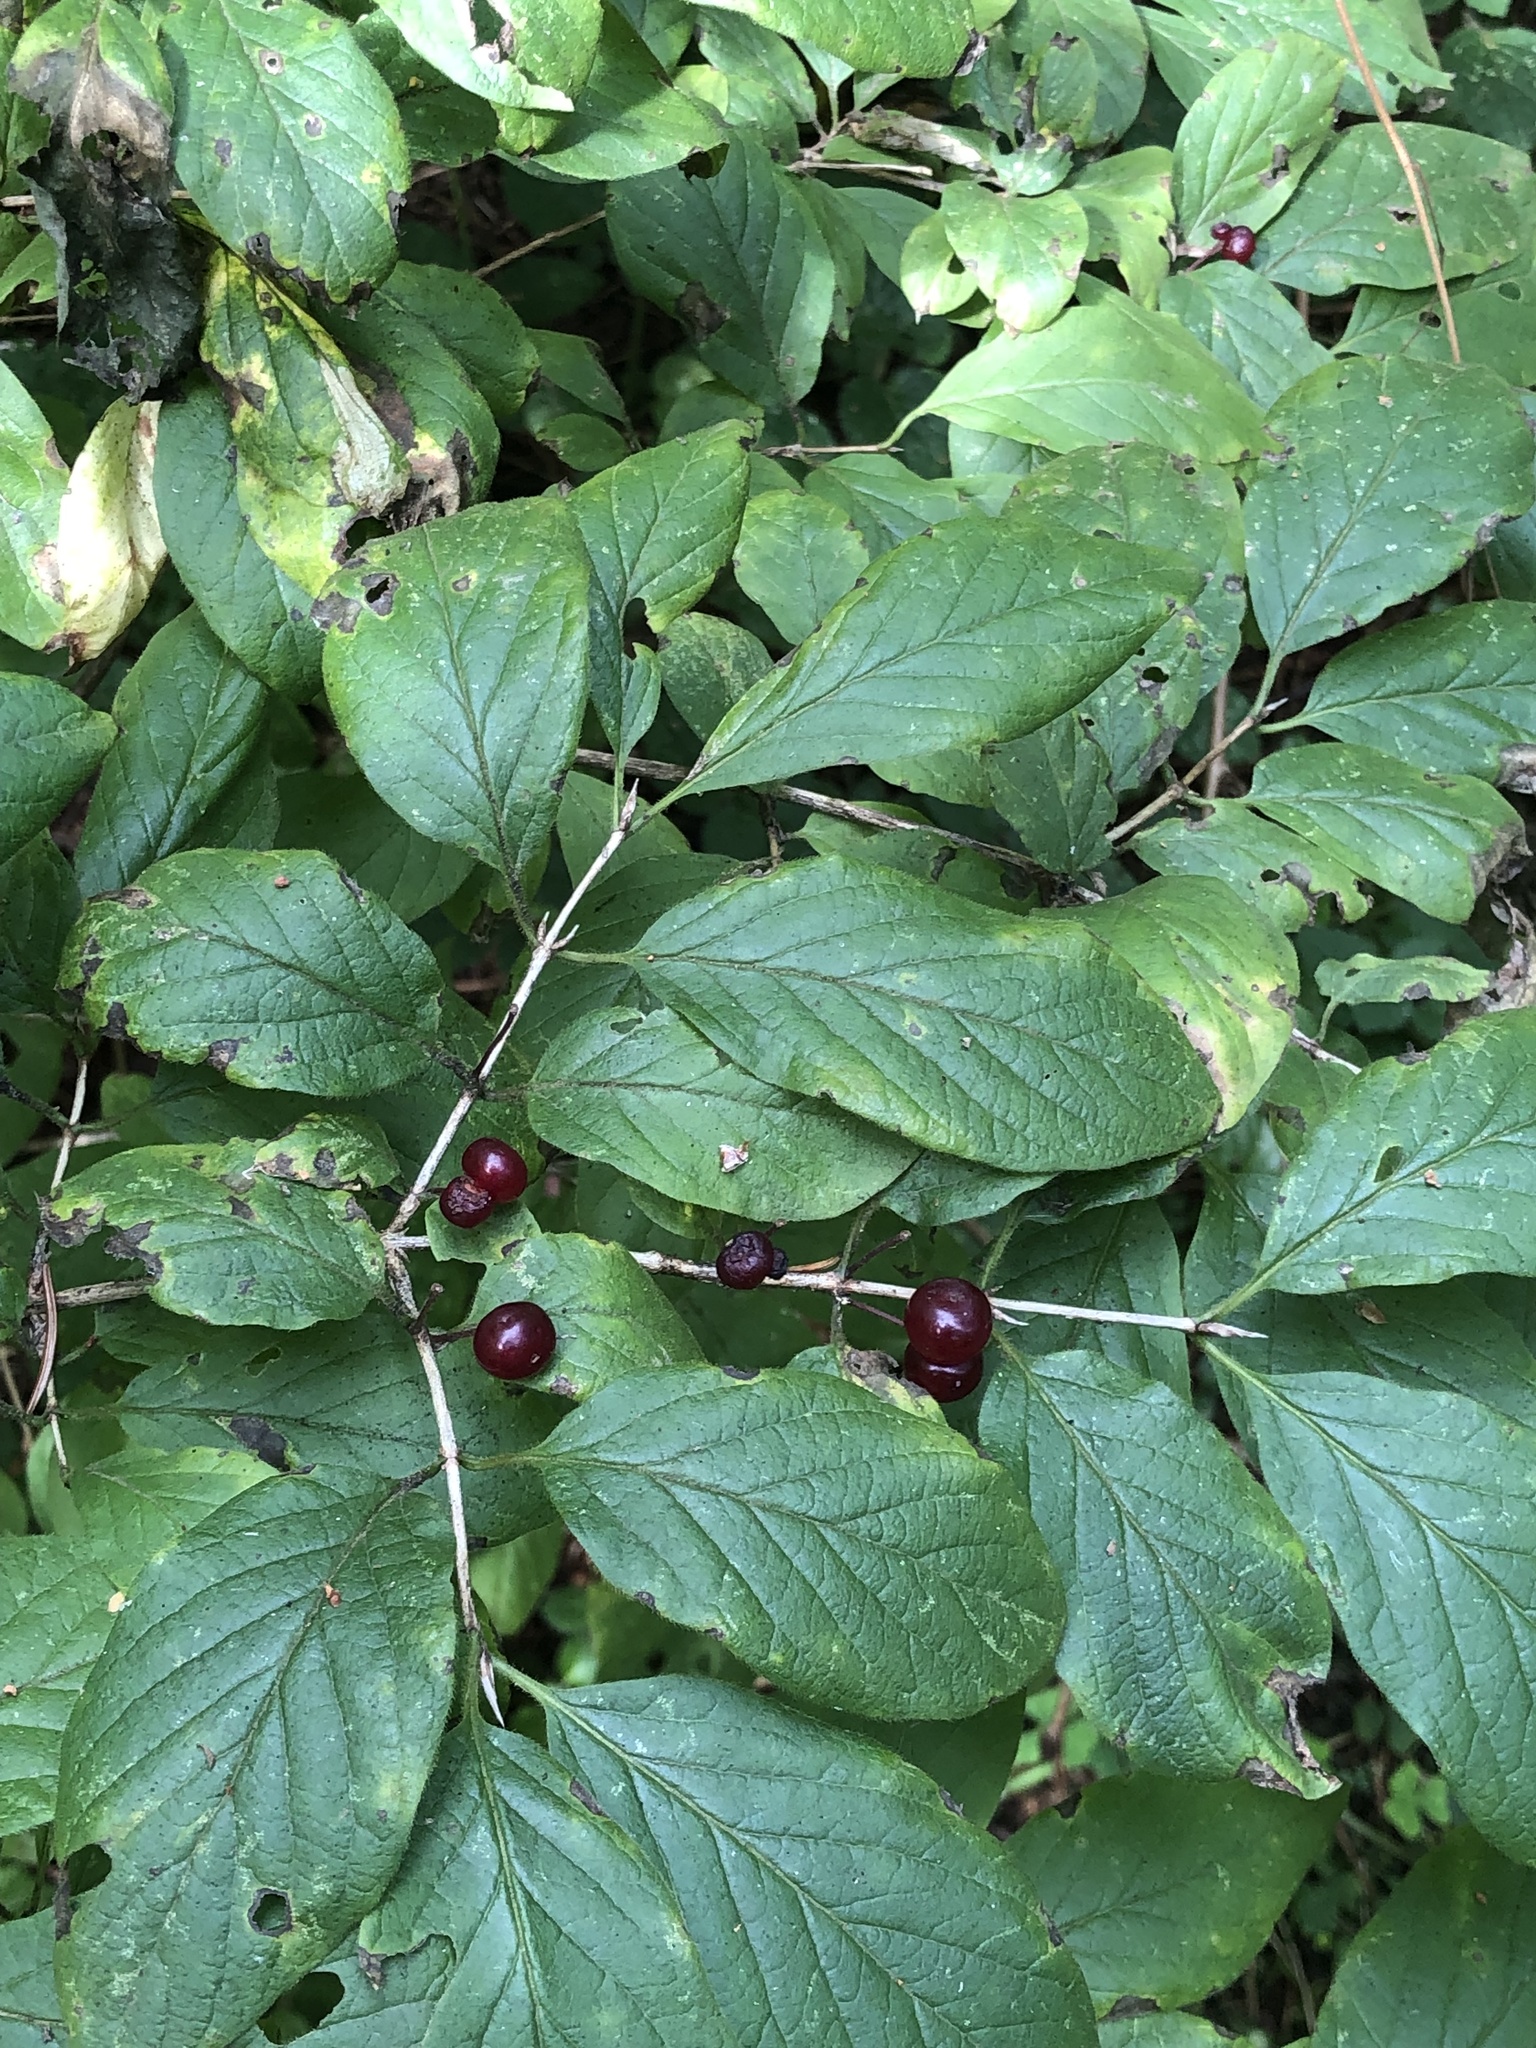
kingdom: Plantae
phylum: Tracheophyta
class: Magnoliopsida
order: Dipsacales
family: Caprifoliaceae
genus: Lonicera
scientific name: Lonicera xylosteum
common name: Fly honeysuckle
